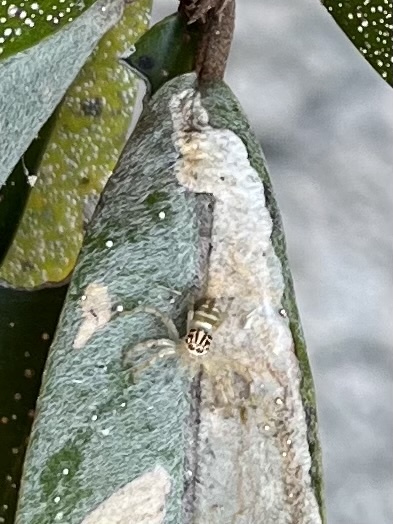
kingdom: Animalia
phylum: Arthropoda
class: Arachnida
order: Araneae
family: Salticidae
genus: Brancus
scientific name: Brancus mustelus
